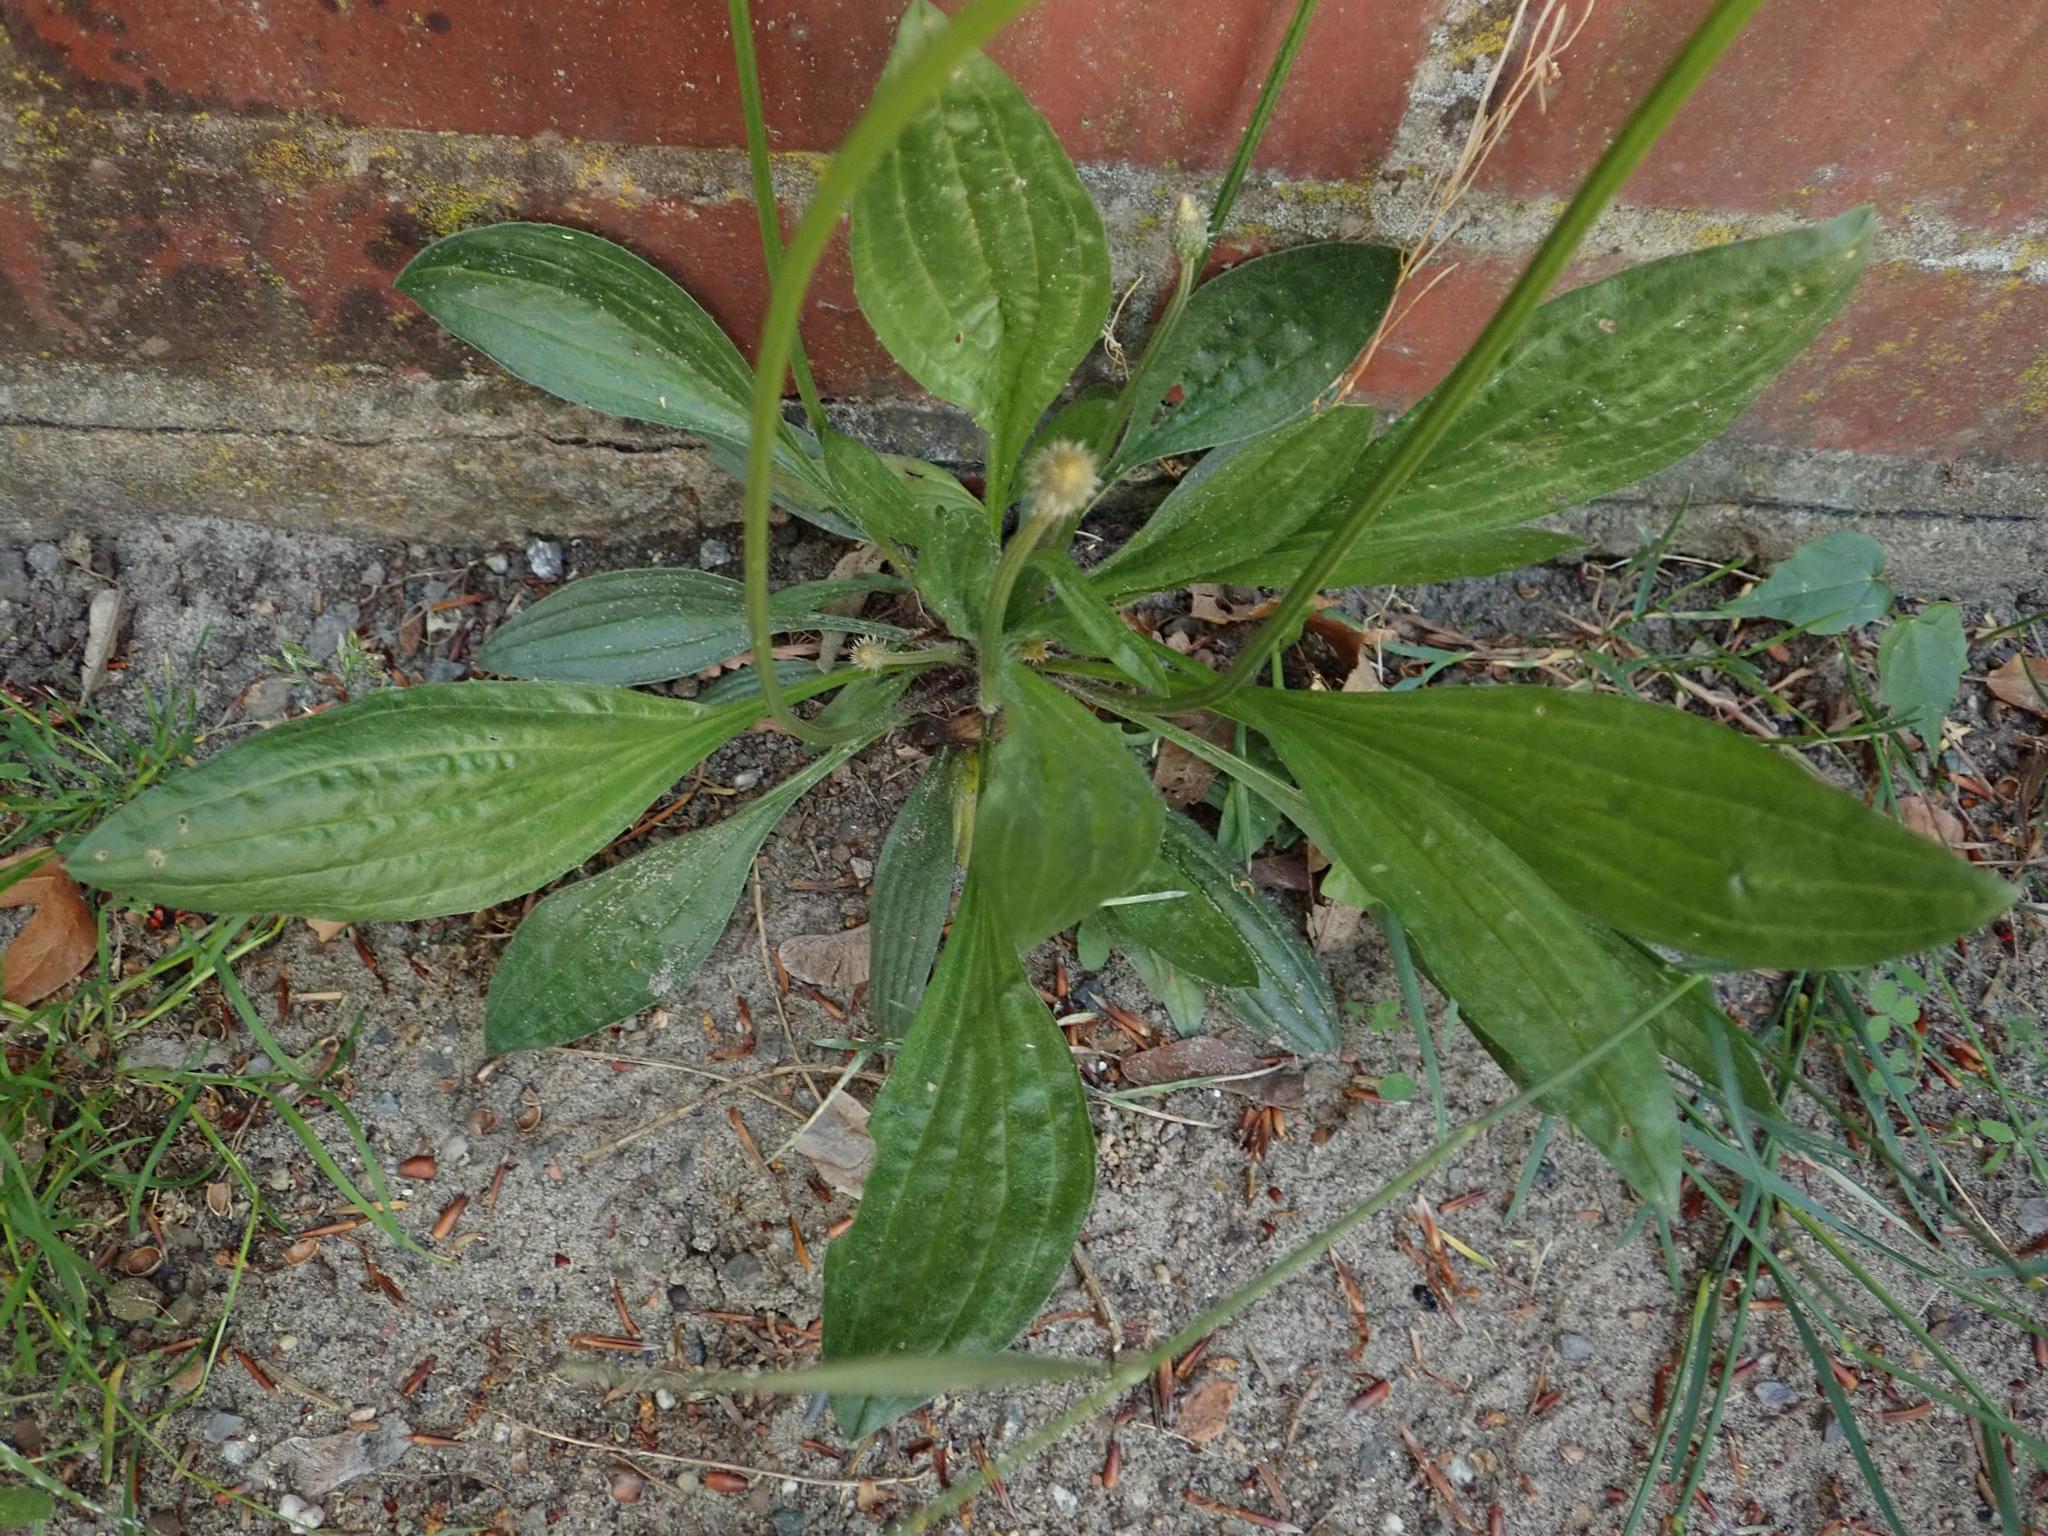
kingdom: Plantae
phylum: Tracheophyta
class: Magnoliopsida
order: Lamiales
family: Plantaginaceae
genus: Plantago
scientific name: Plantago lanceolata
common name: Ribwort plantain
